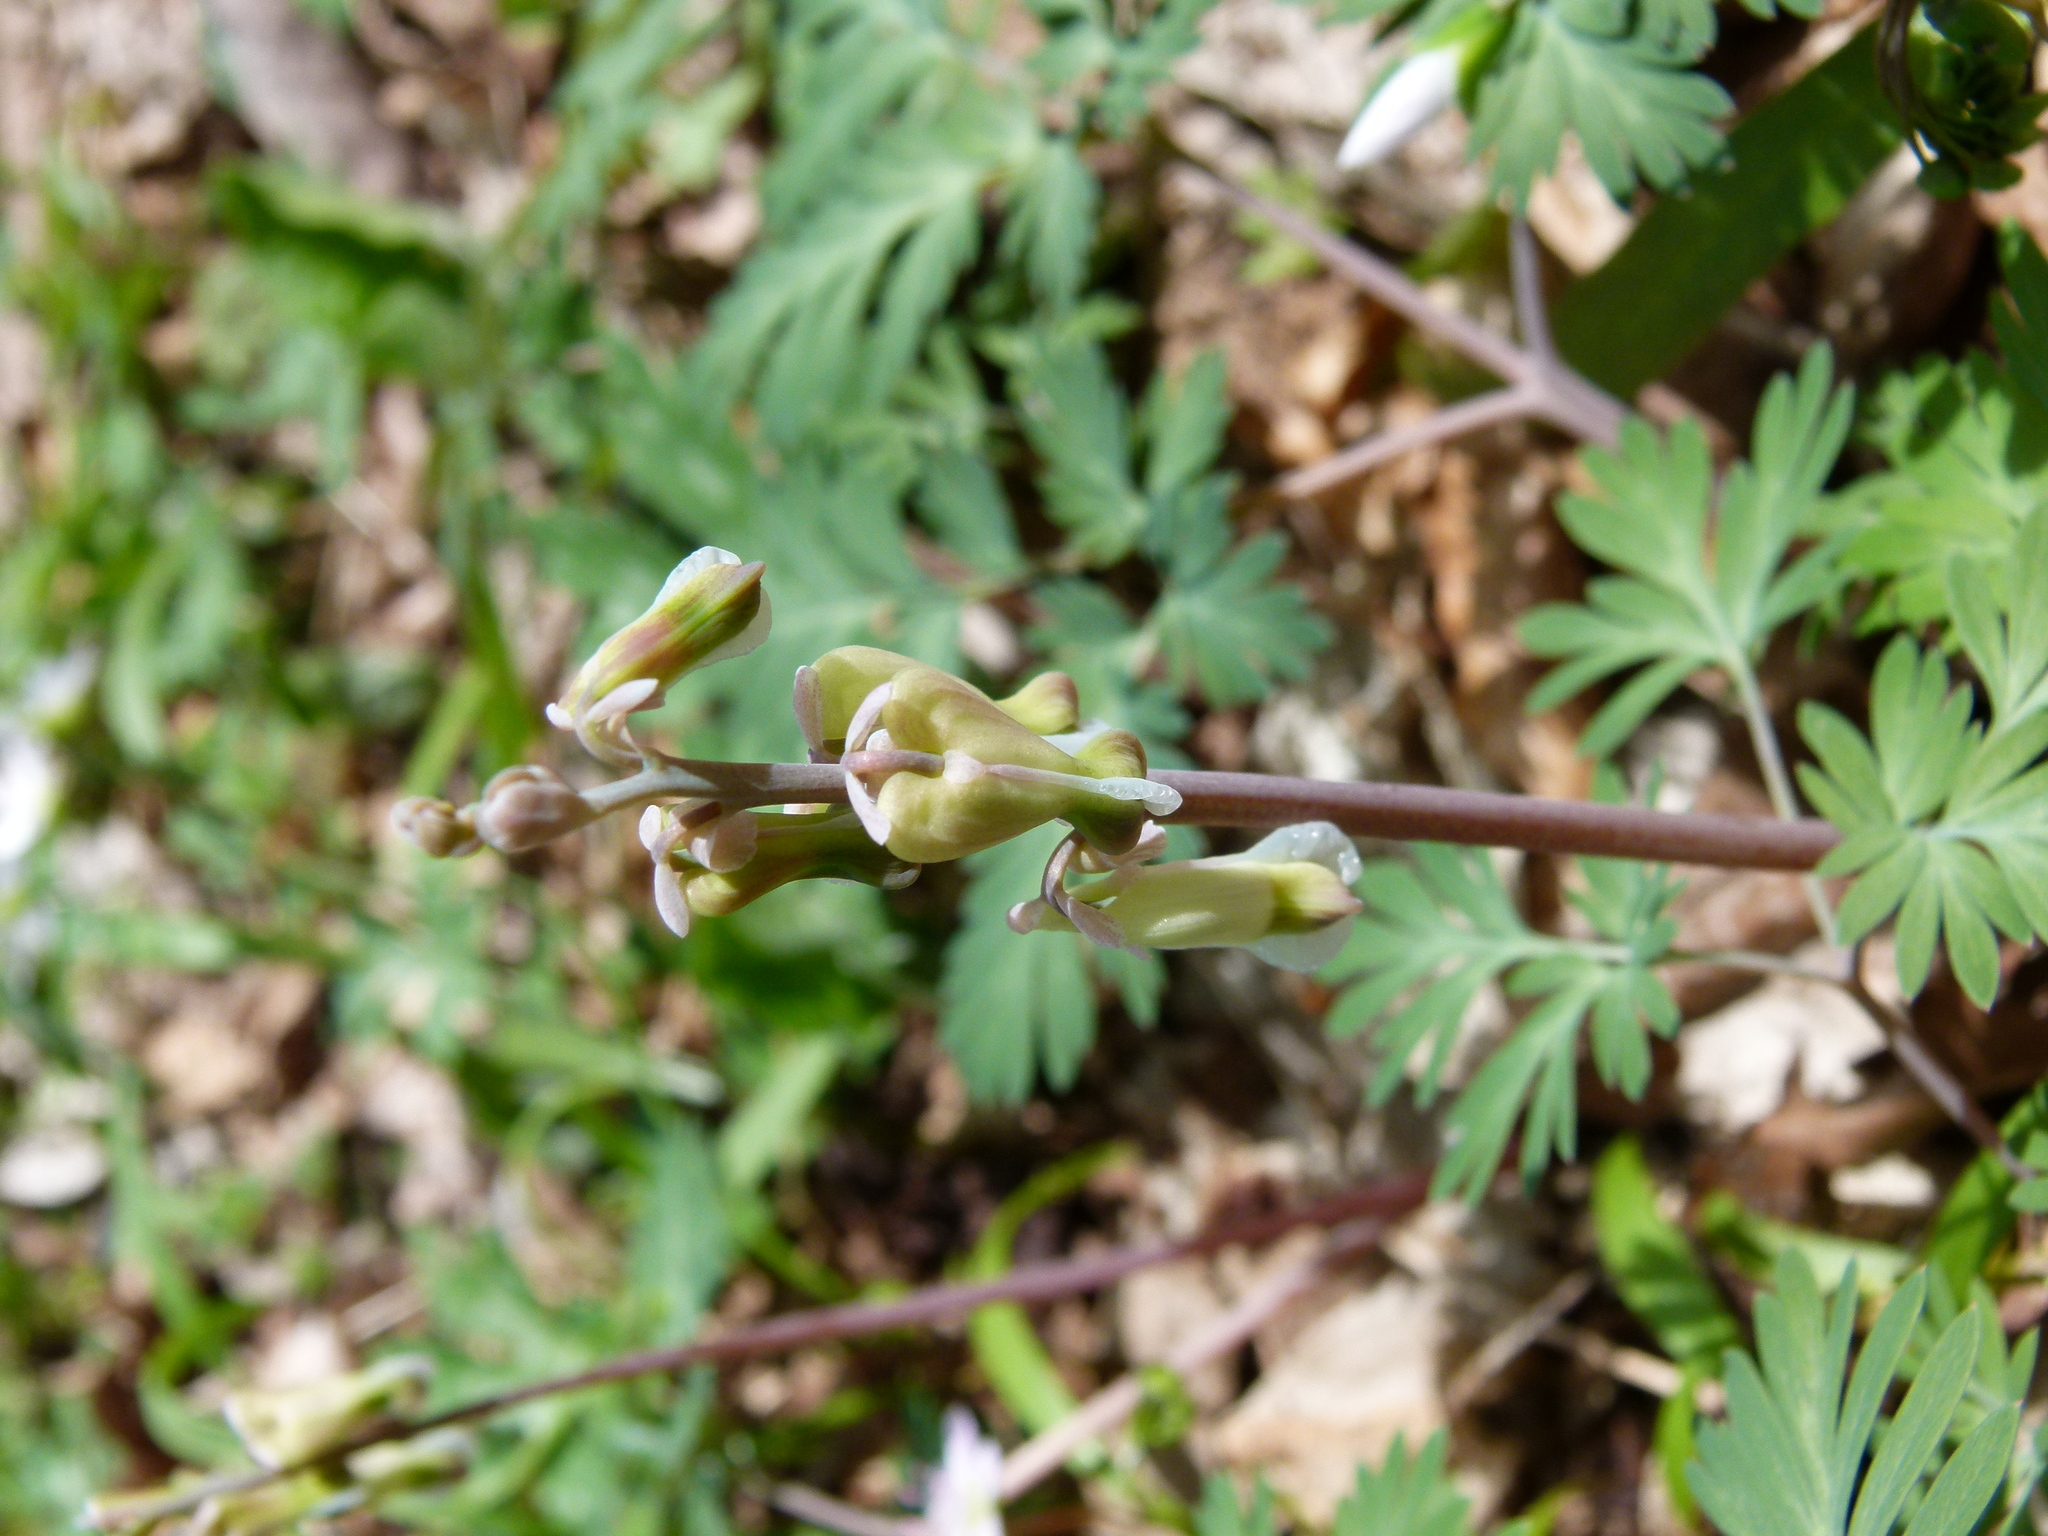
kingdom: Plantae
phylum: Tracheophyta
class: Magnoliopsida
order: Ranunculales
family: Papaveraceae
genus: Dicentra
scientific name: Dicentra canadensis
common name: Squirrel-corn
